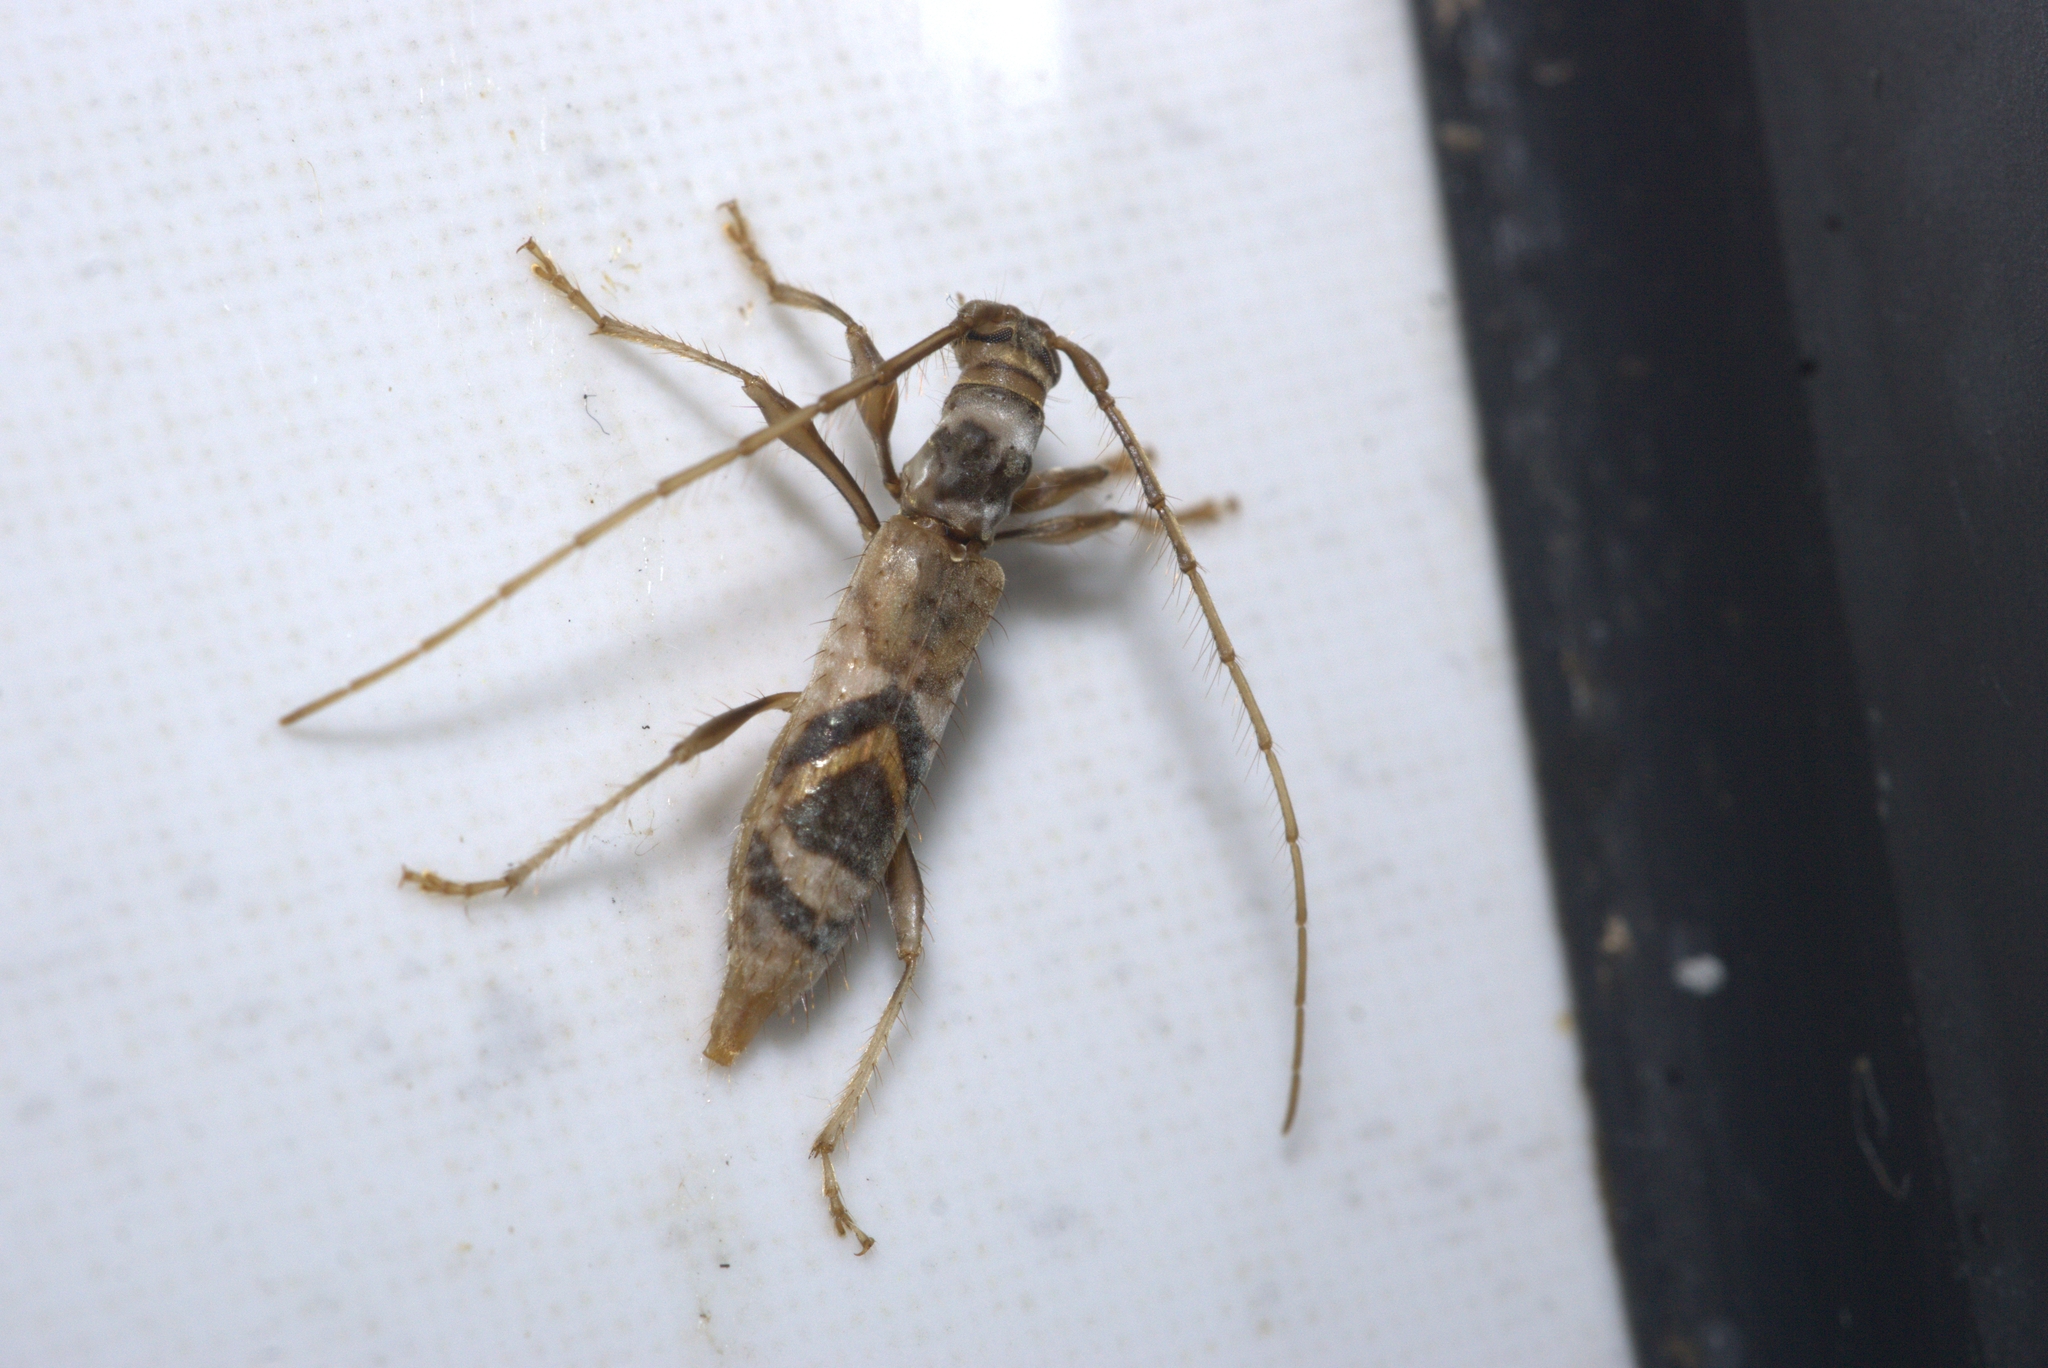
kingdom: Animalia
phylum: Arthropoda
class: Insecta
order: Coleoptera
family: Cerambycidae
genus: Compsibidion
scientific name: Compsibidion sommeri
